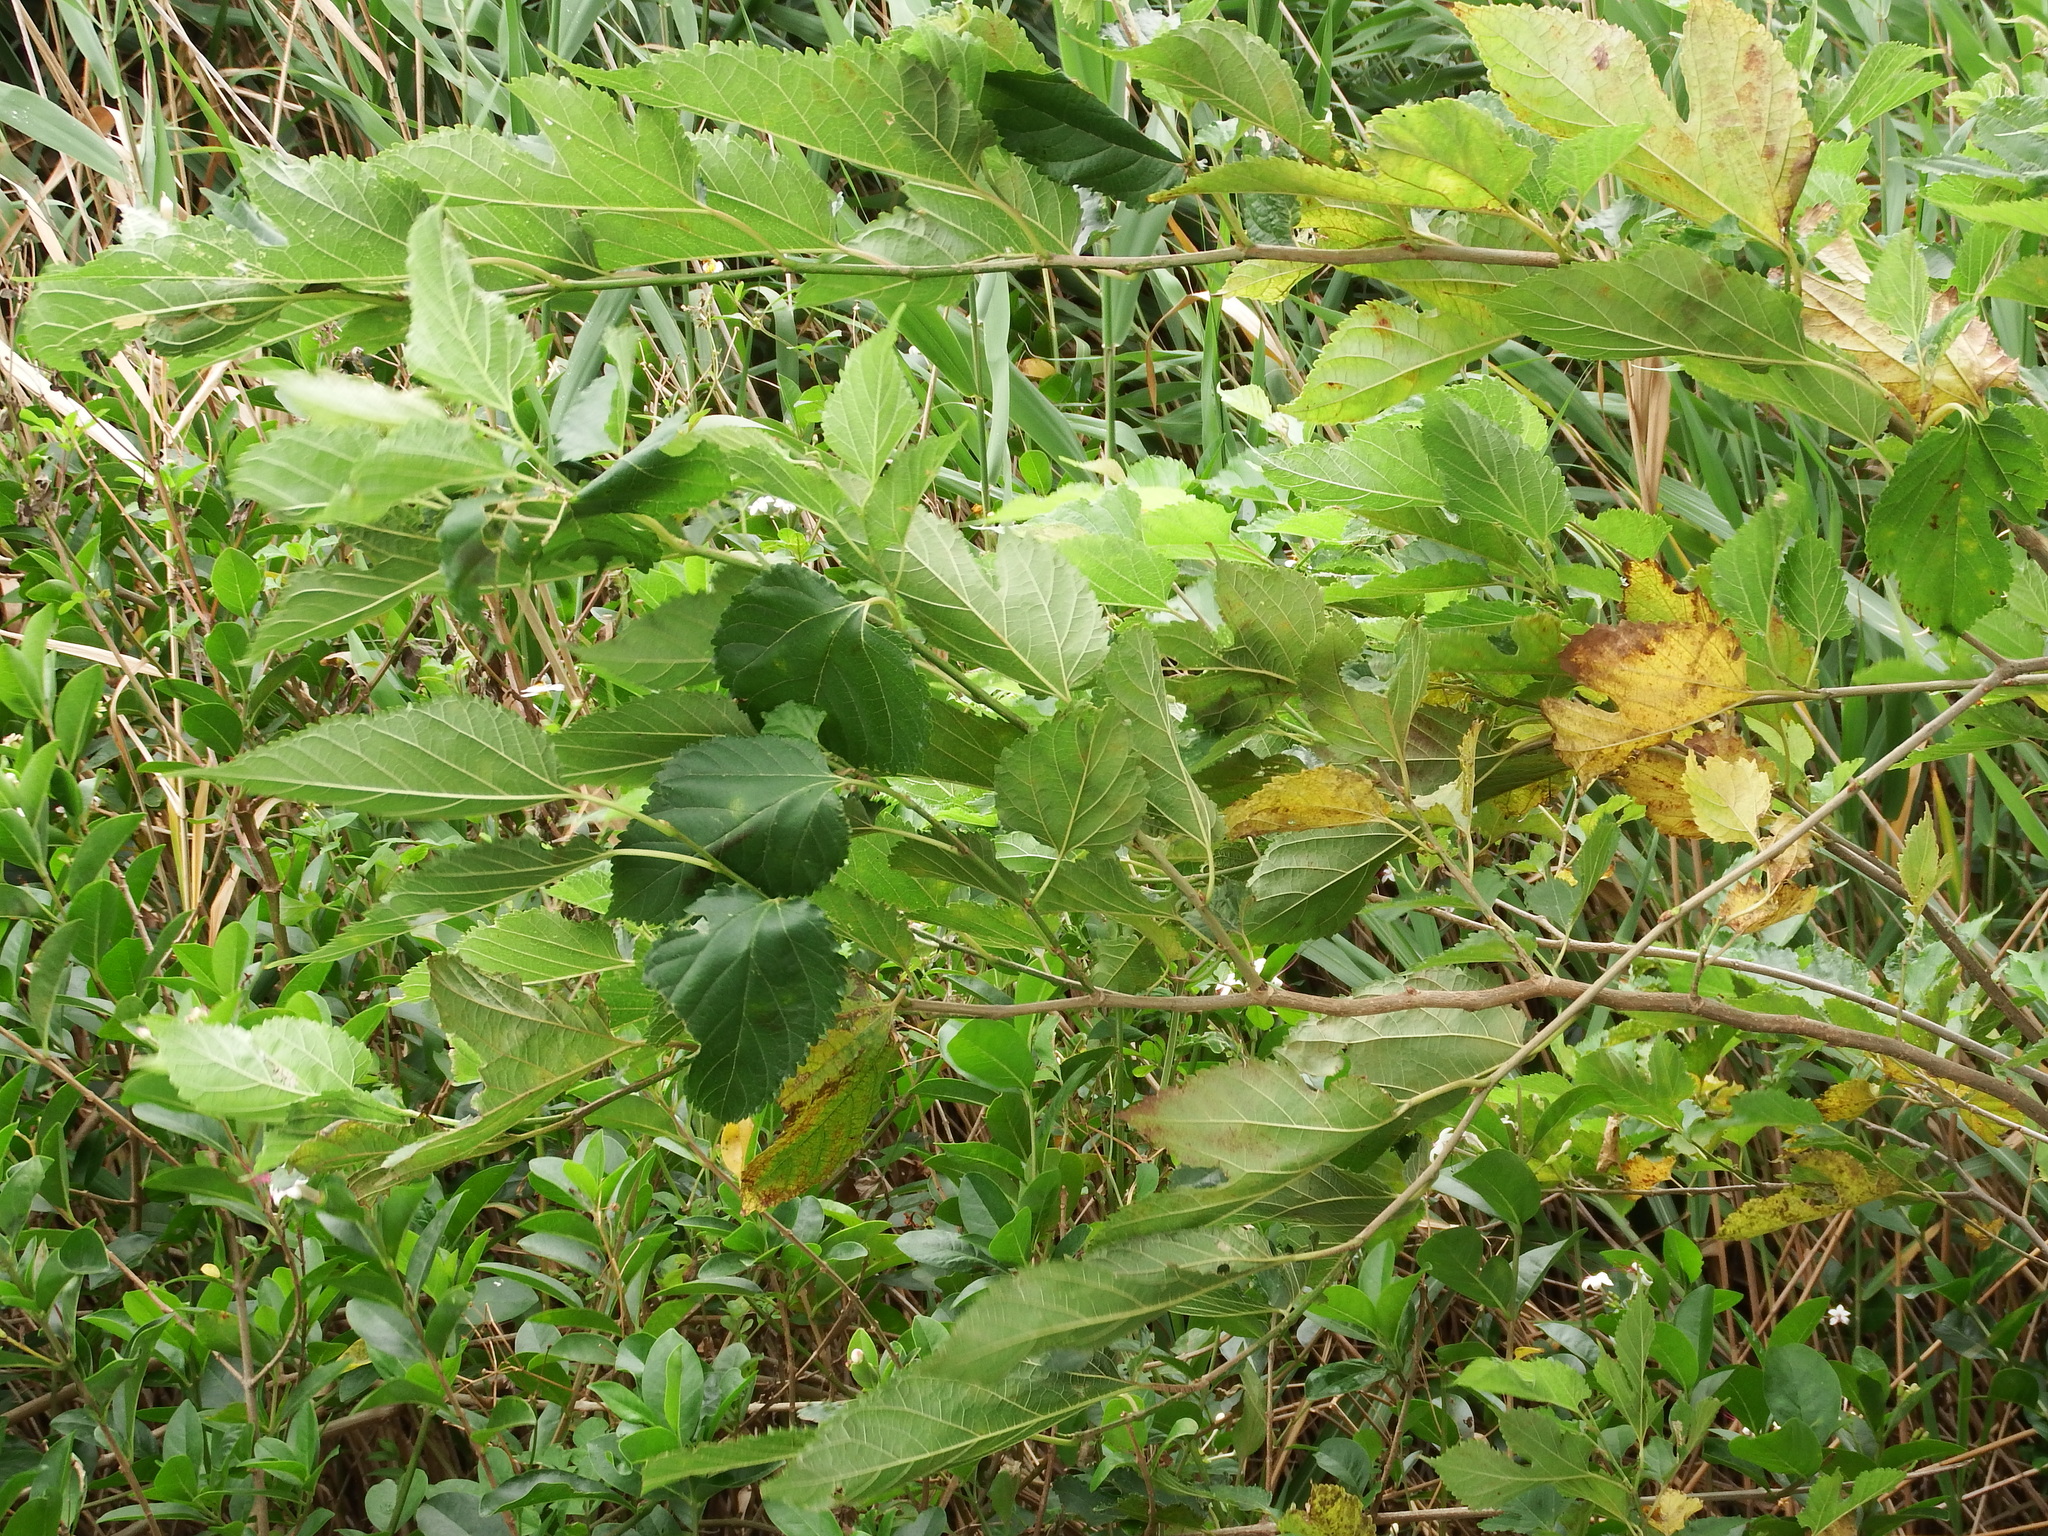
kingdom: Plantae
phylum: Tracheophyta
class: Magnoliopsida
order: Rosales
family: Moraceae
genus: Morus
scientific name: Morus indica
